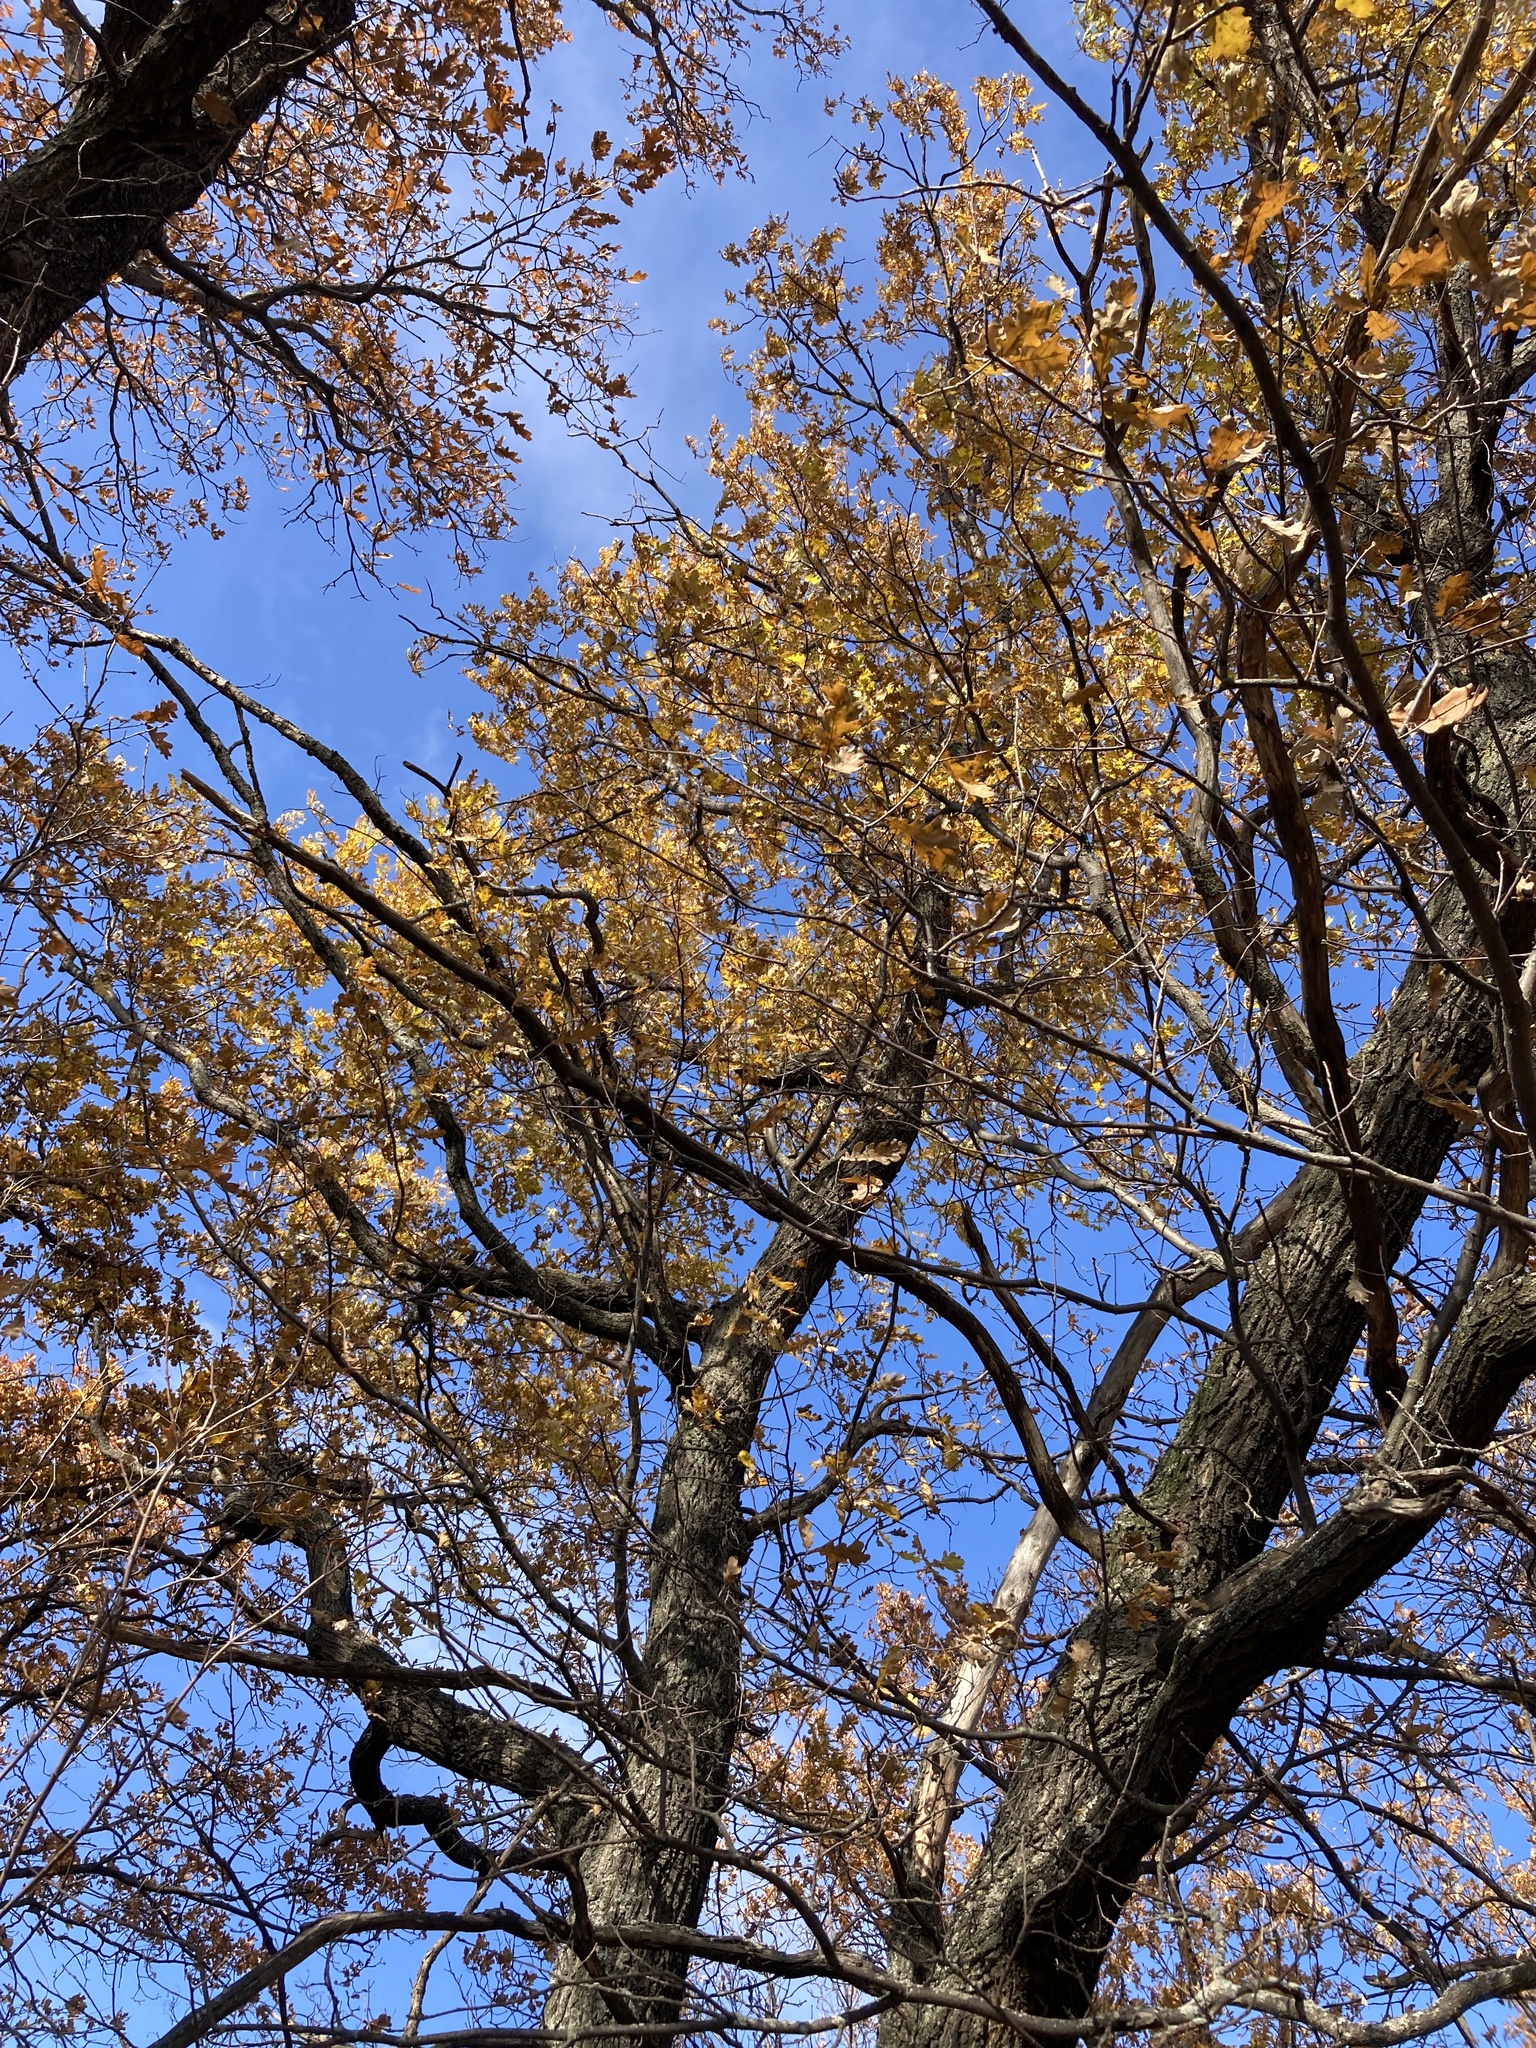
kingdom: Plantae
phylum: Tracheophyta
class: Magnoliopsida
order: Fagales
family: Fagaceae
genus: Quercus
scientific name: Quercus robur
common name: Pedunculate oak
